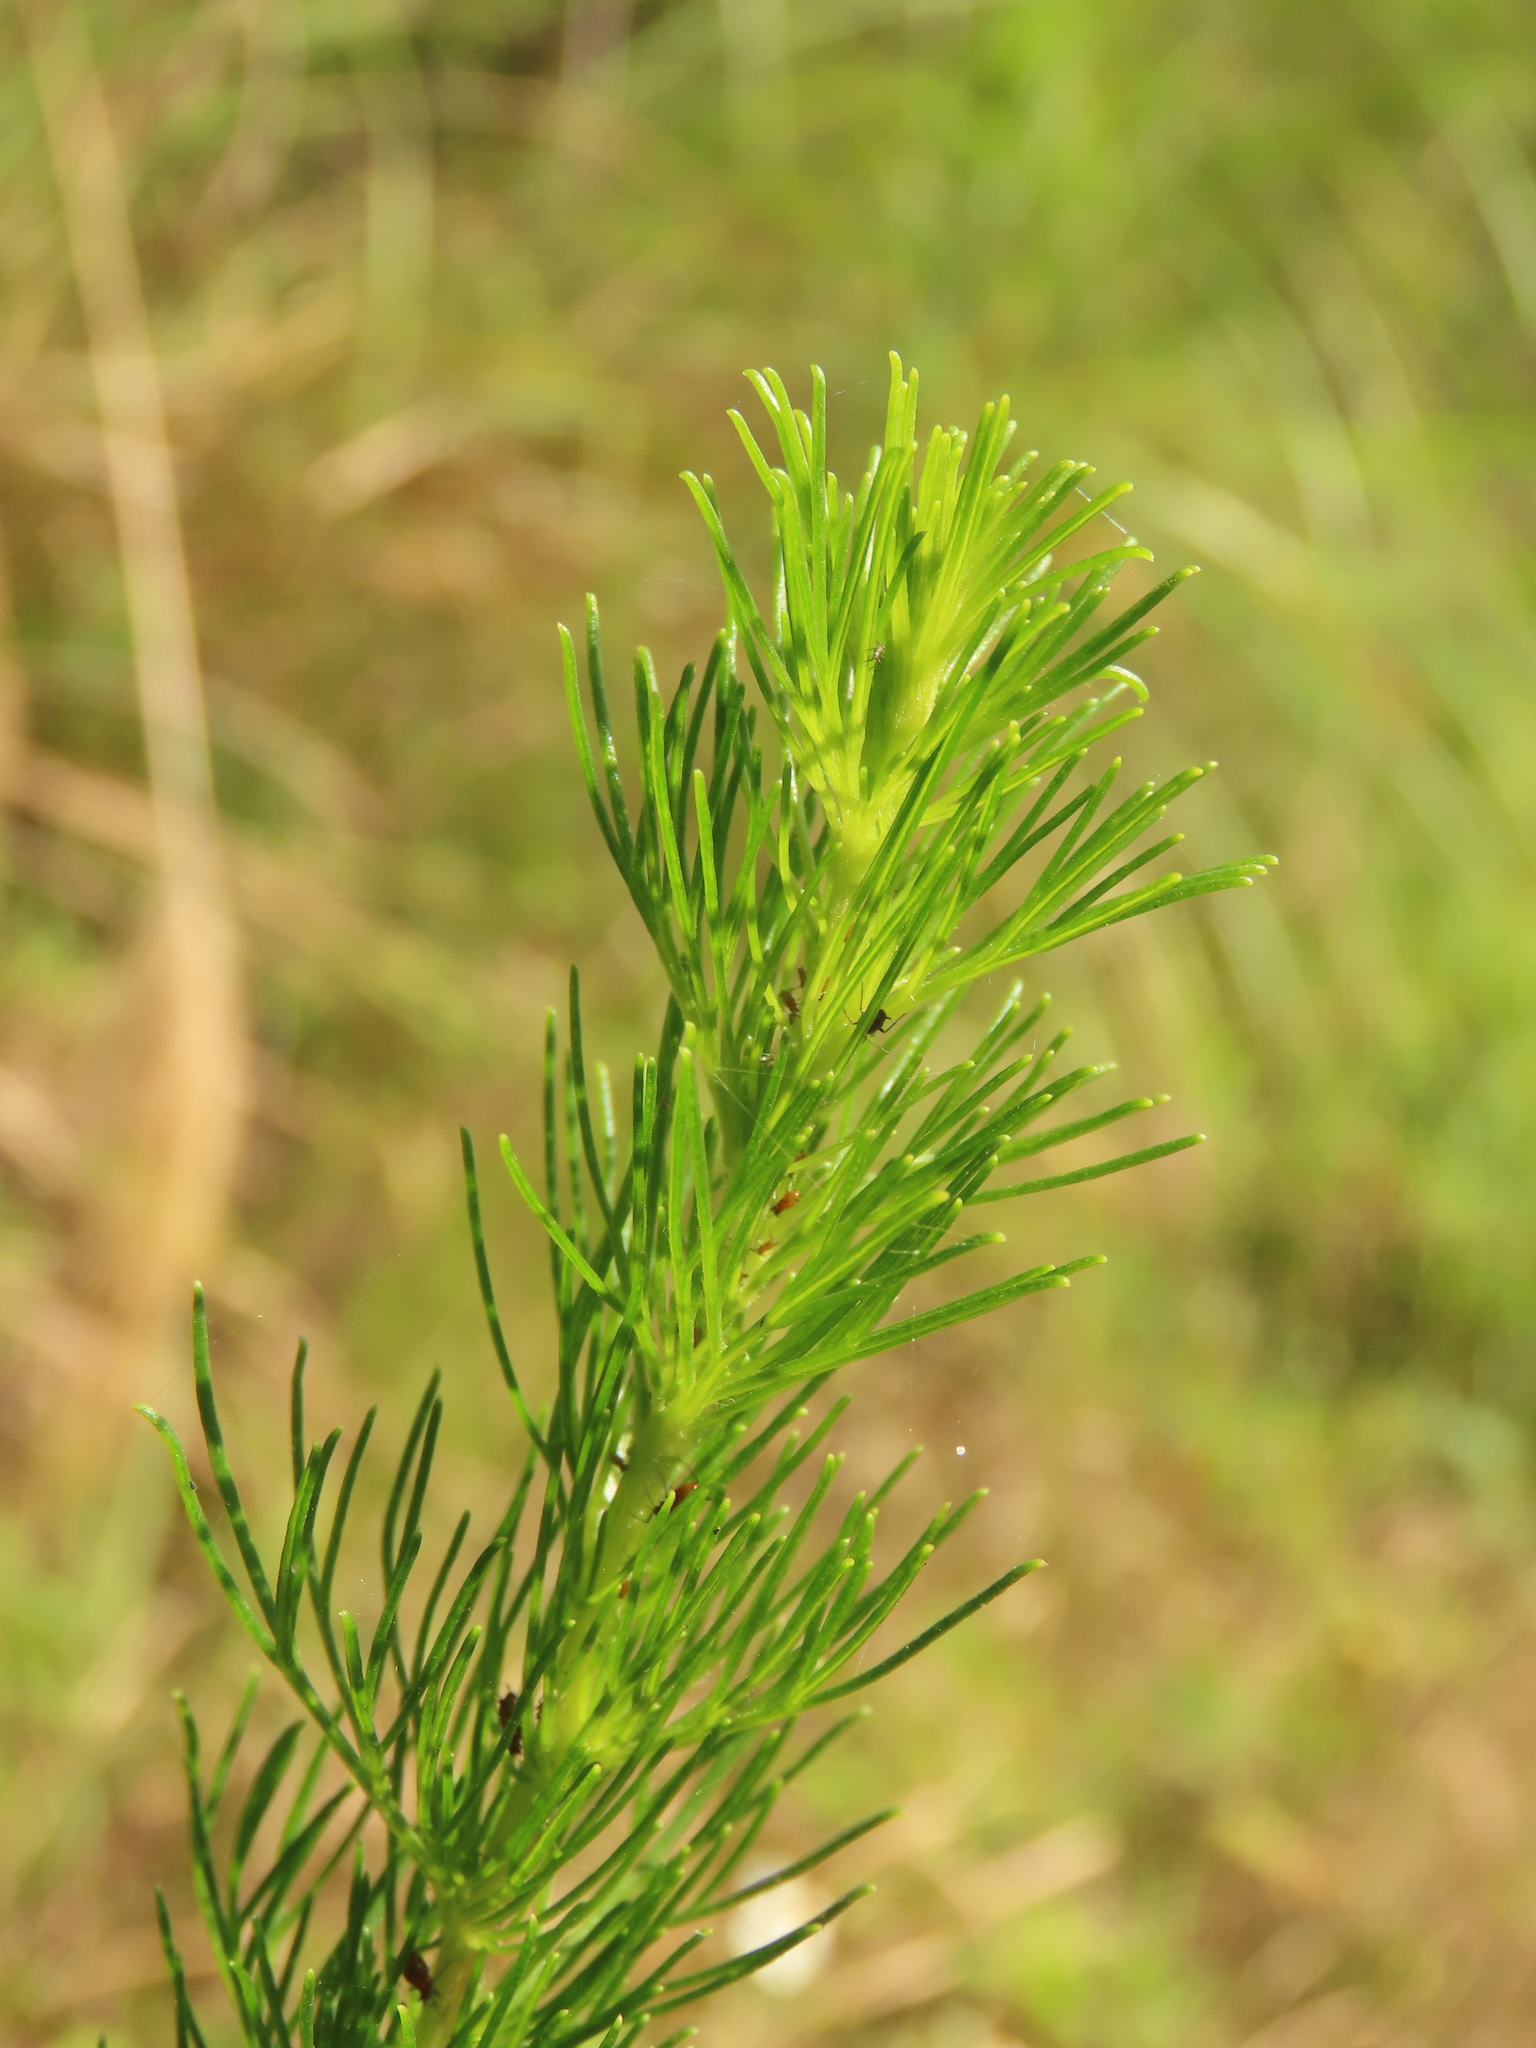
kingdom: Plantae
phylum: Tracheophyta
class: Magnoliopsida
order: Asterales
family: Asteraceae
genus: Artemisia
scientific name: Artemisia capillaris
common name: Yin-chen wormwood
